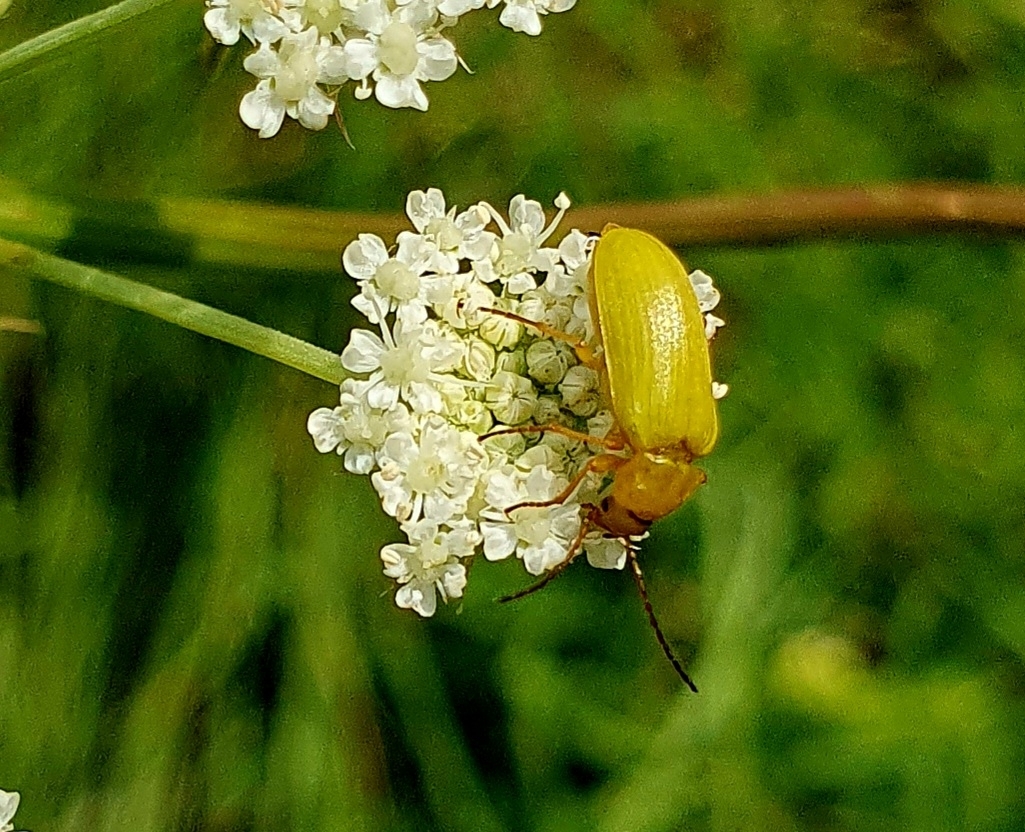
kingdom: Animalia
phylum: Arthropoda
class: Insecta
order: Coleoptera
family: Tenebrionidae
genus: Cteniopus
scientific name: Cteniopus sulphureus
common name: Sulphur beetle
